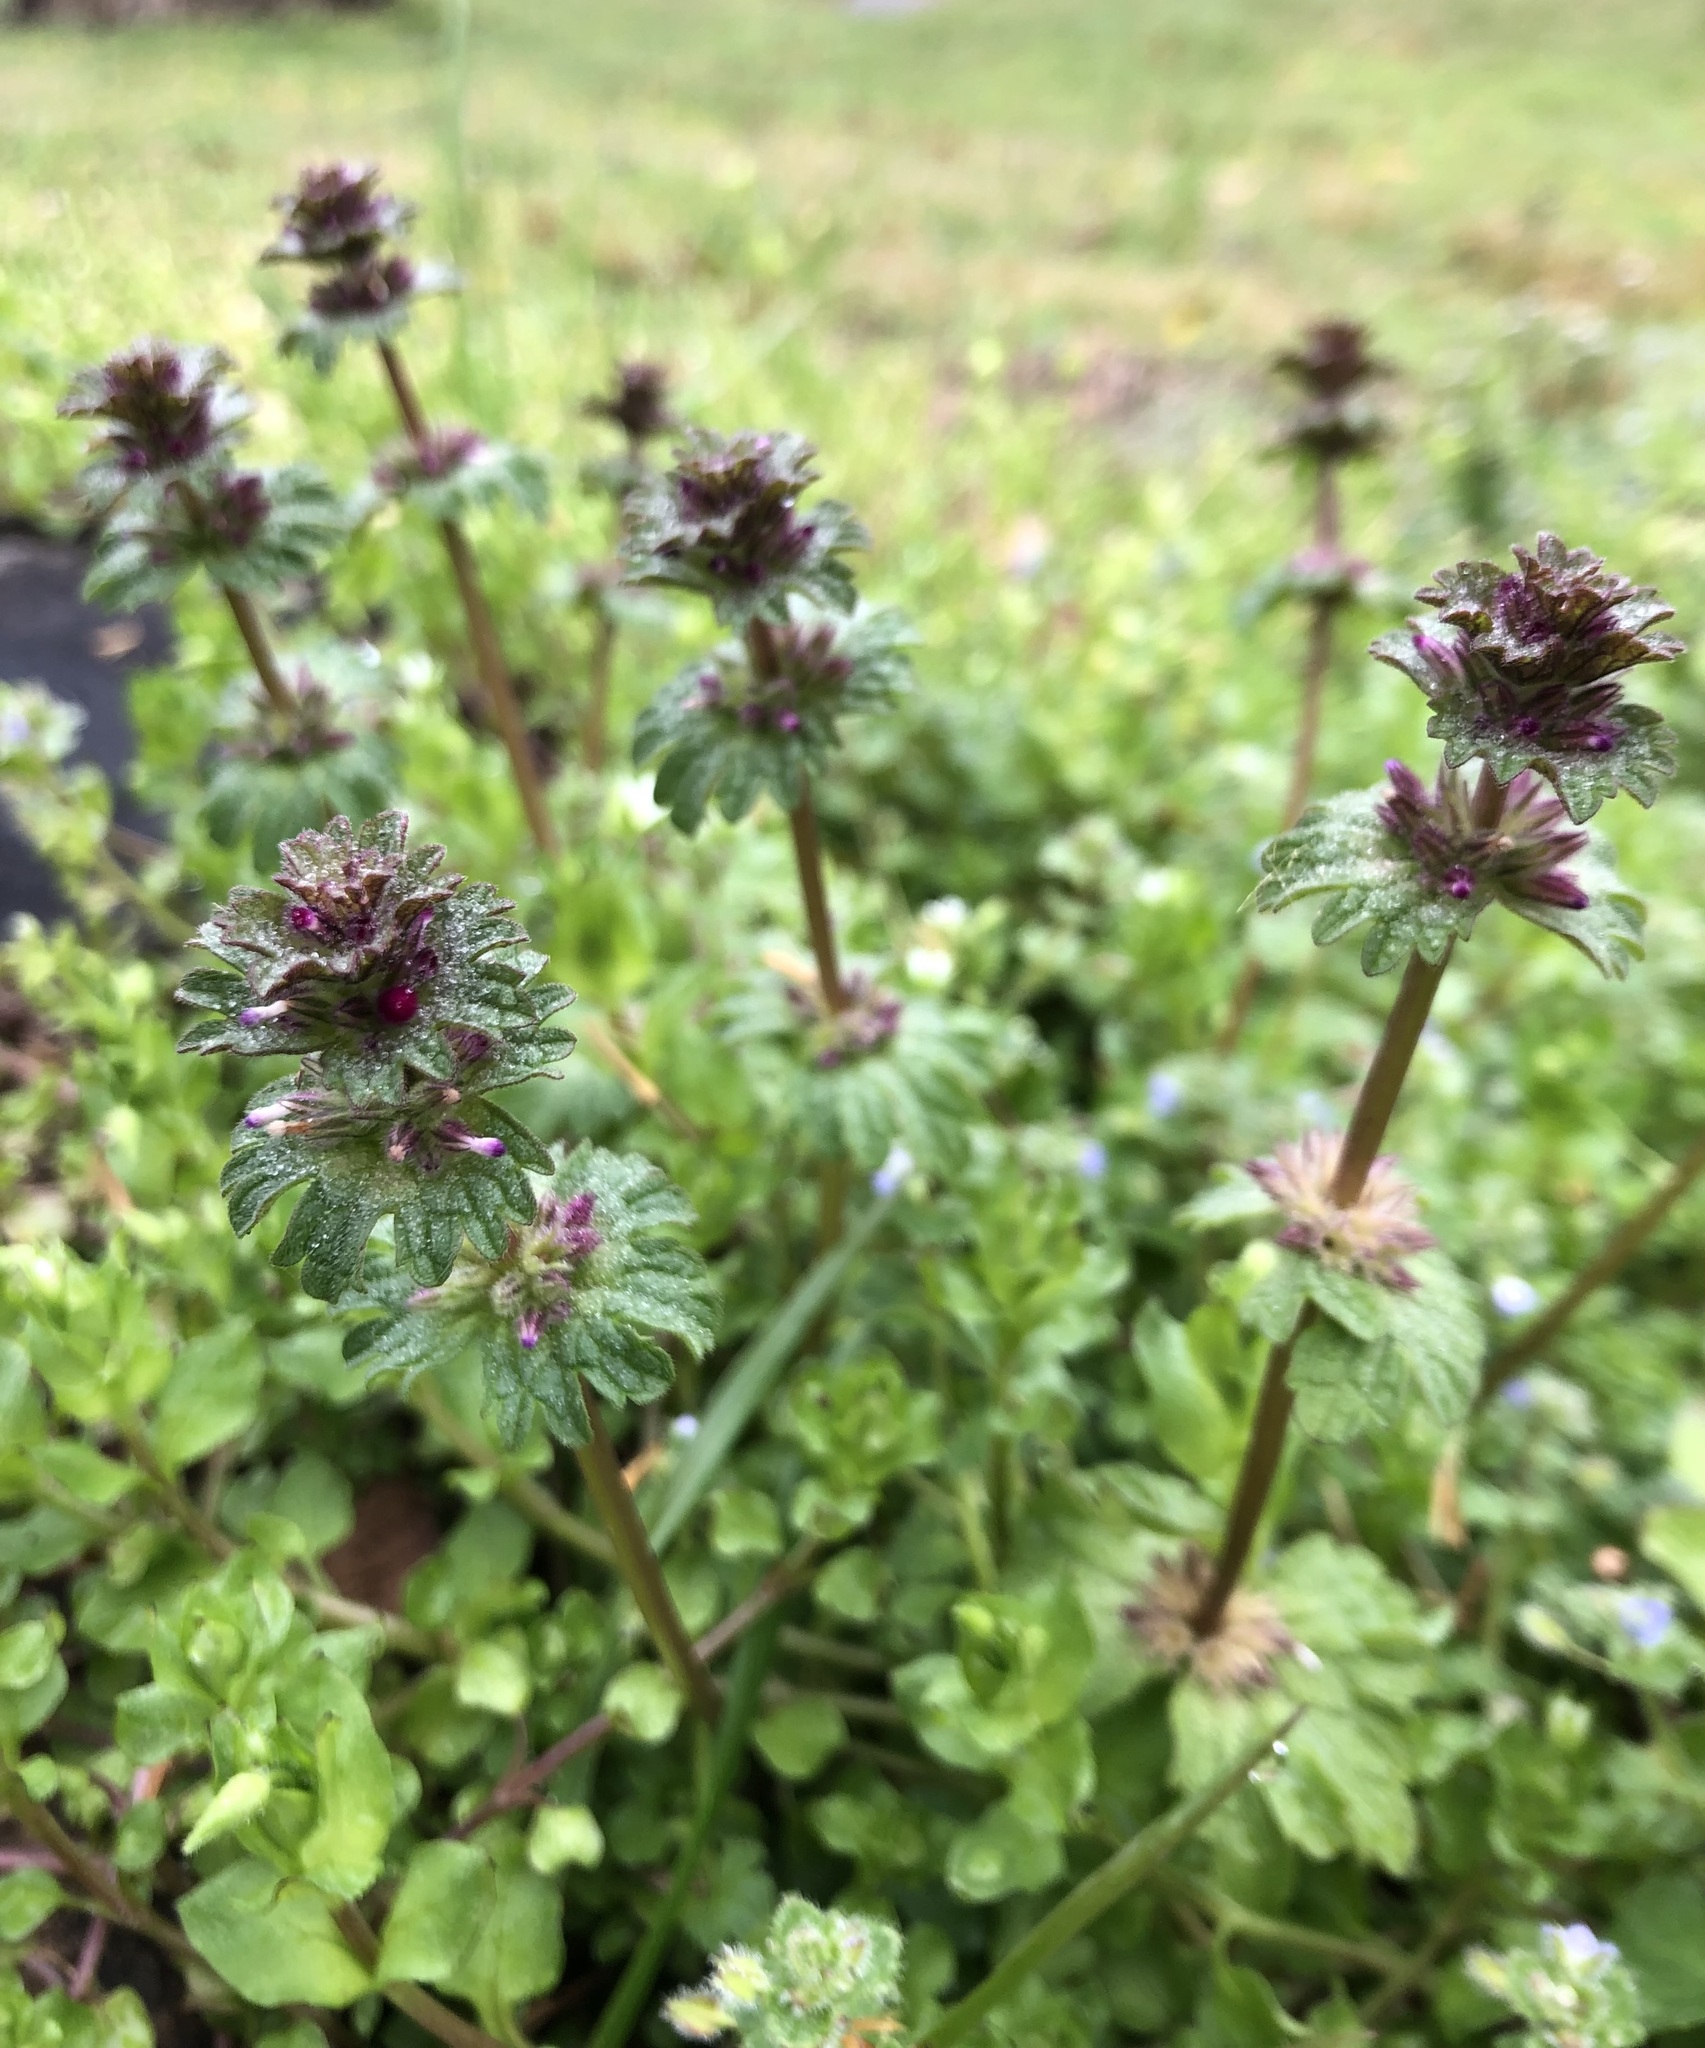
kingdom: Plantae
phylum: Tracheophyta
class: Magnoliopsida
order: Lamiales
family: Lamiaceae
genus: Lamium
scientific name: Lamium amplexicaule
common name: Henbit dead-nettle
